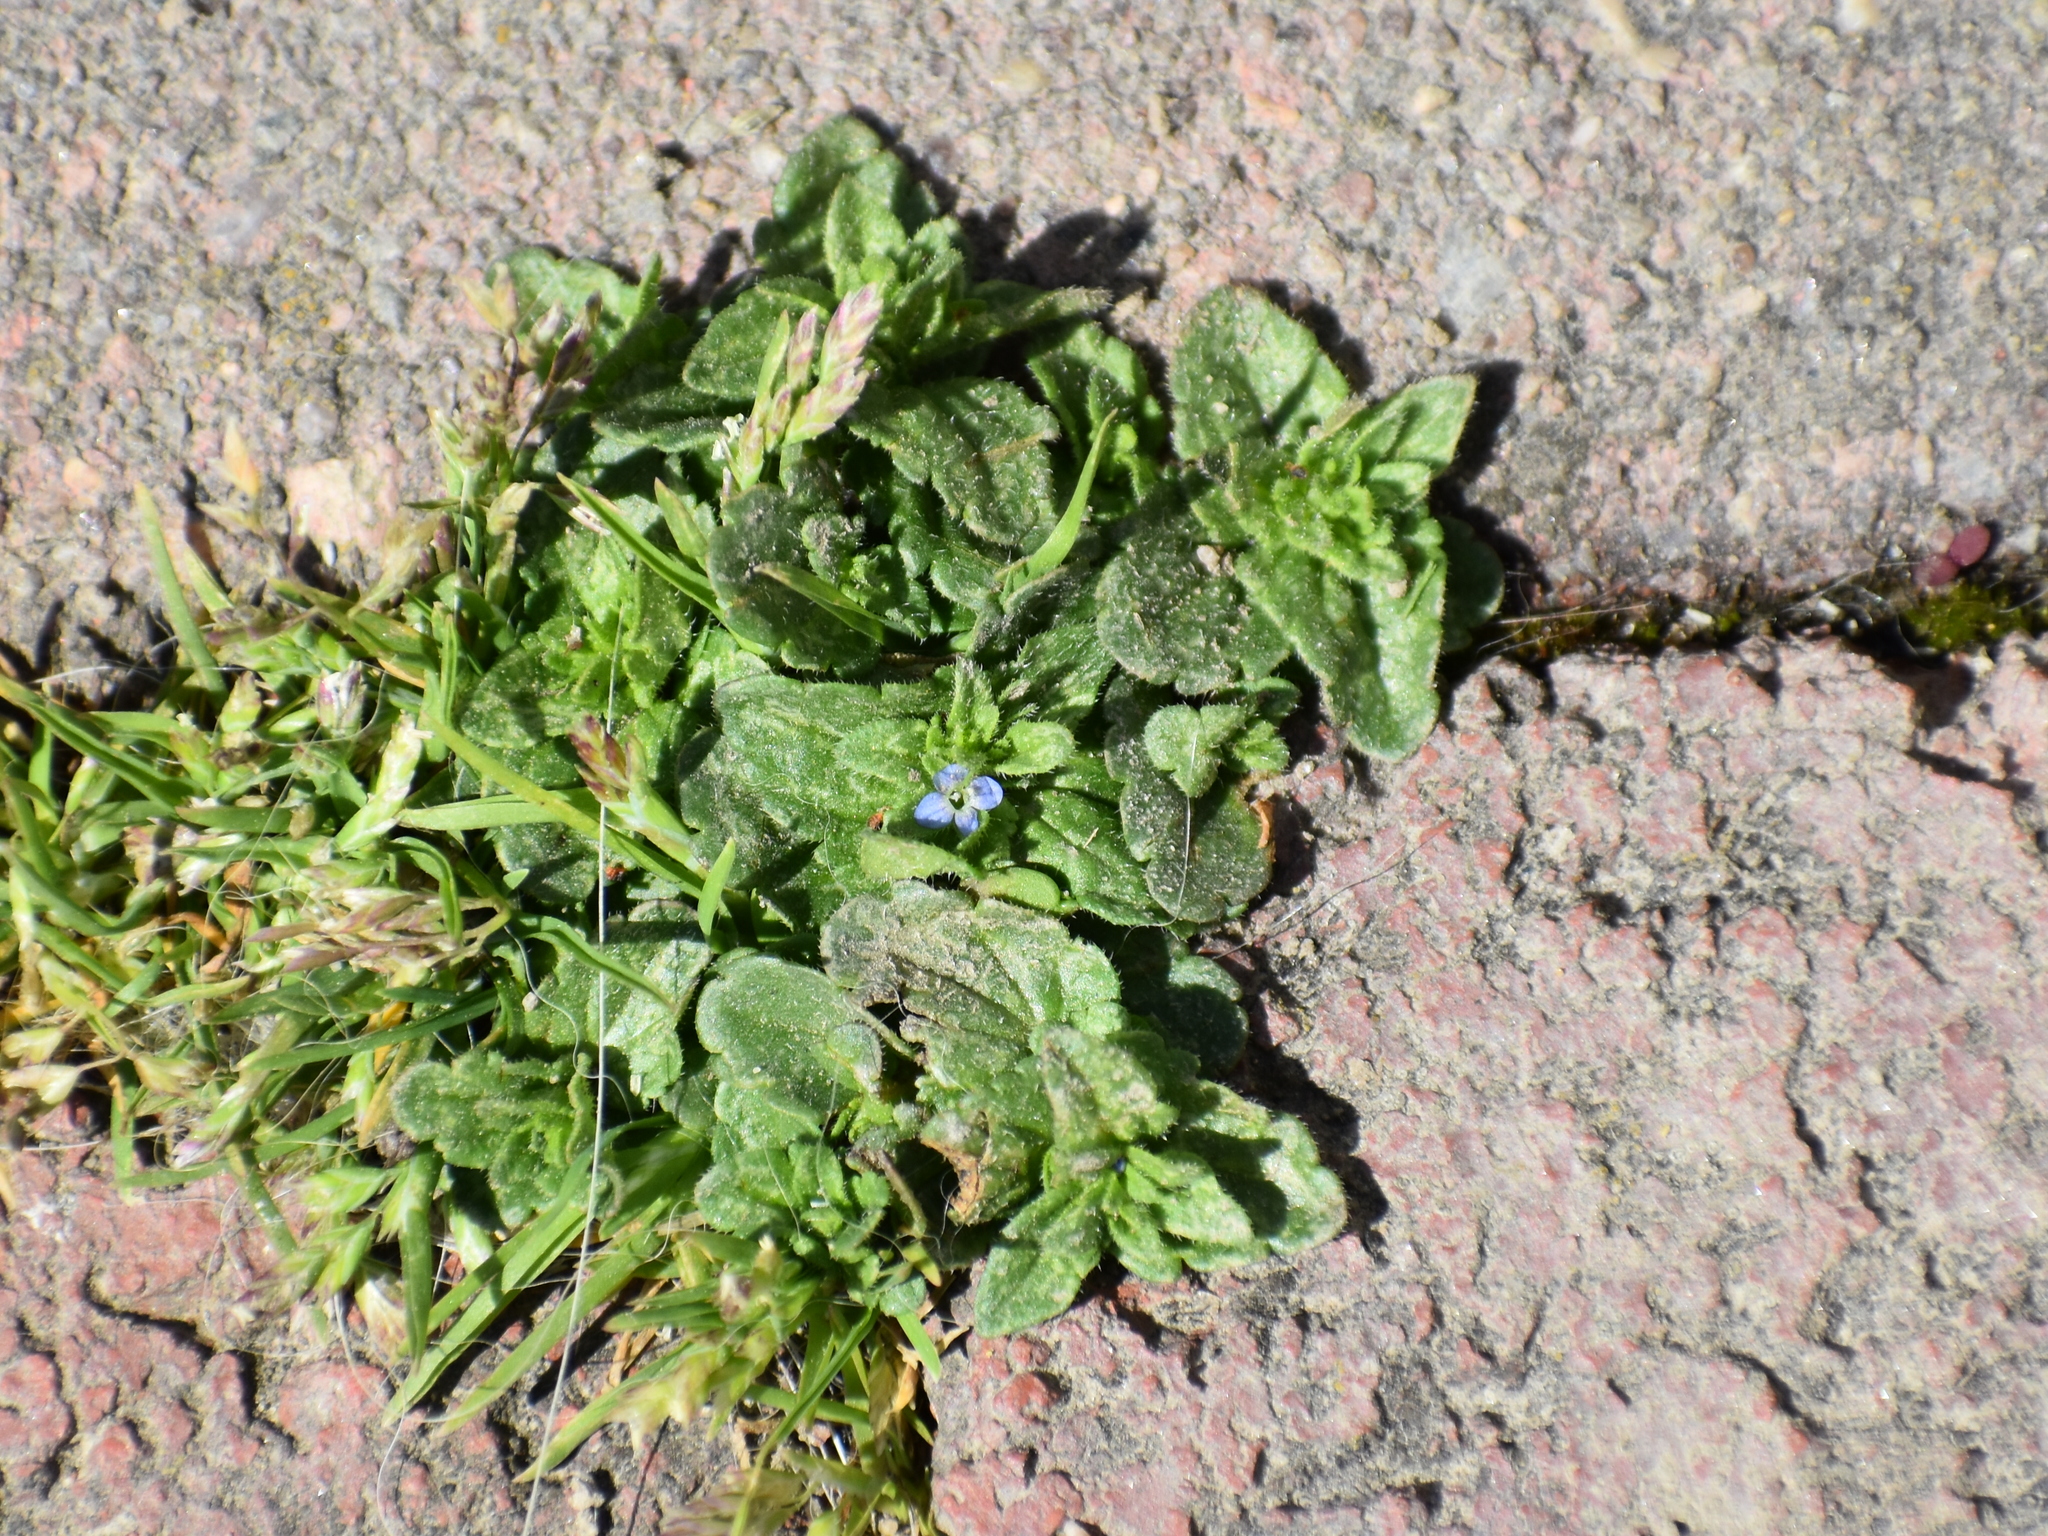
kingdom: Plantae
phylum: Tracheophyta
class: Magnoliopsida
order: Lamiales
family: Plantaginaceae
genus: Veronica
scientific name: Veronica arvensis
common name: Corn speedwell
